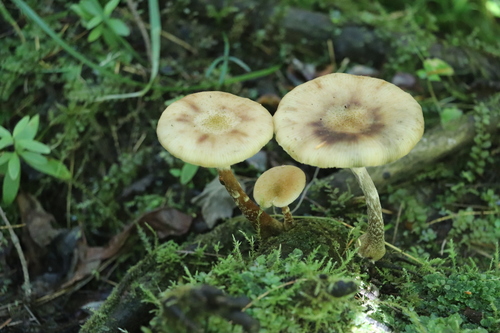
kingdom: Fungi
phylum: Basidiomycota
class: Agaricomycetes
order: Agaricales
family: Physalacriaceae
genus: Armillaria
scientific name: Armillaria cepistipes
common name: Mullet honey fungus
